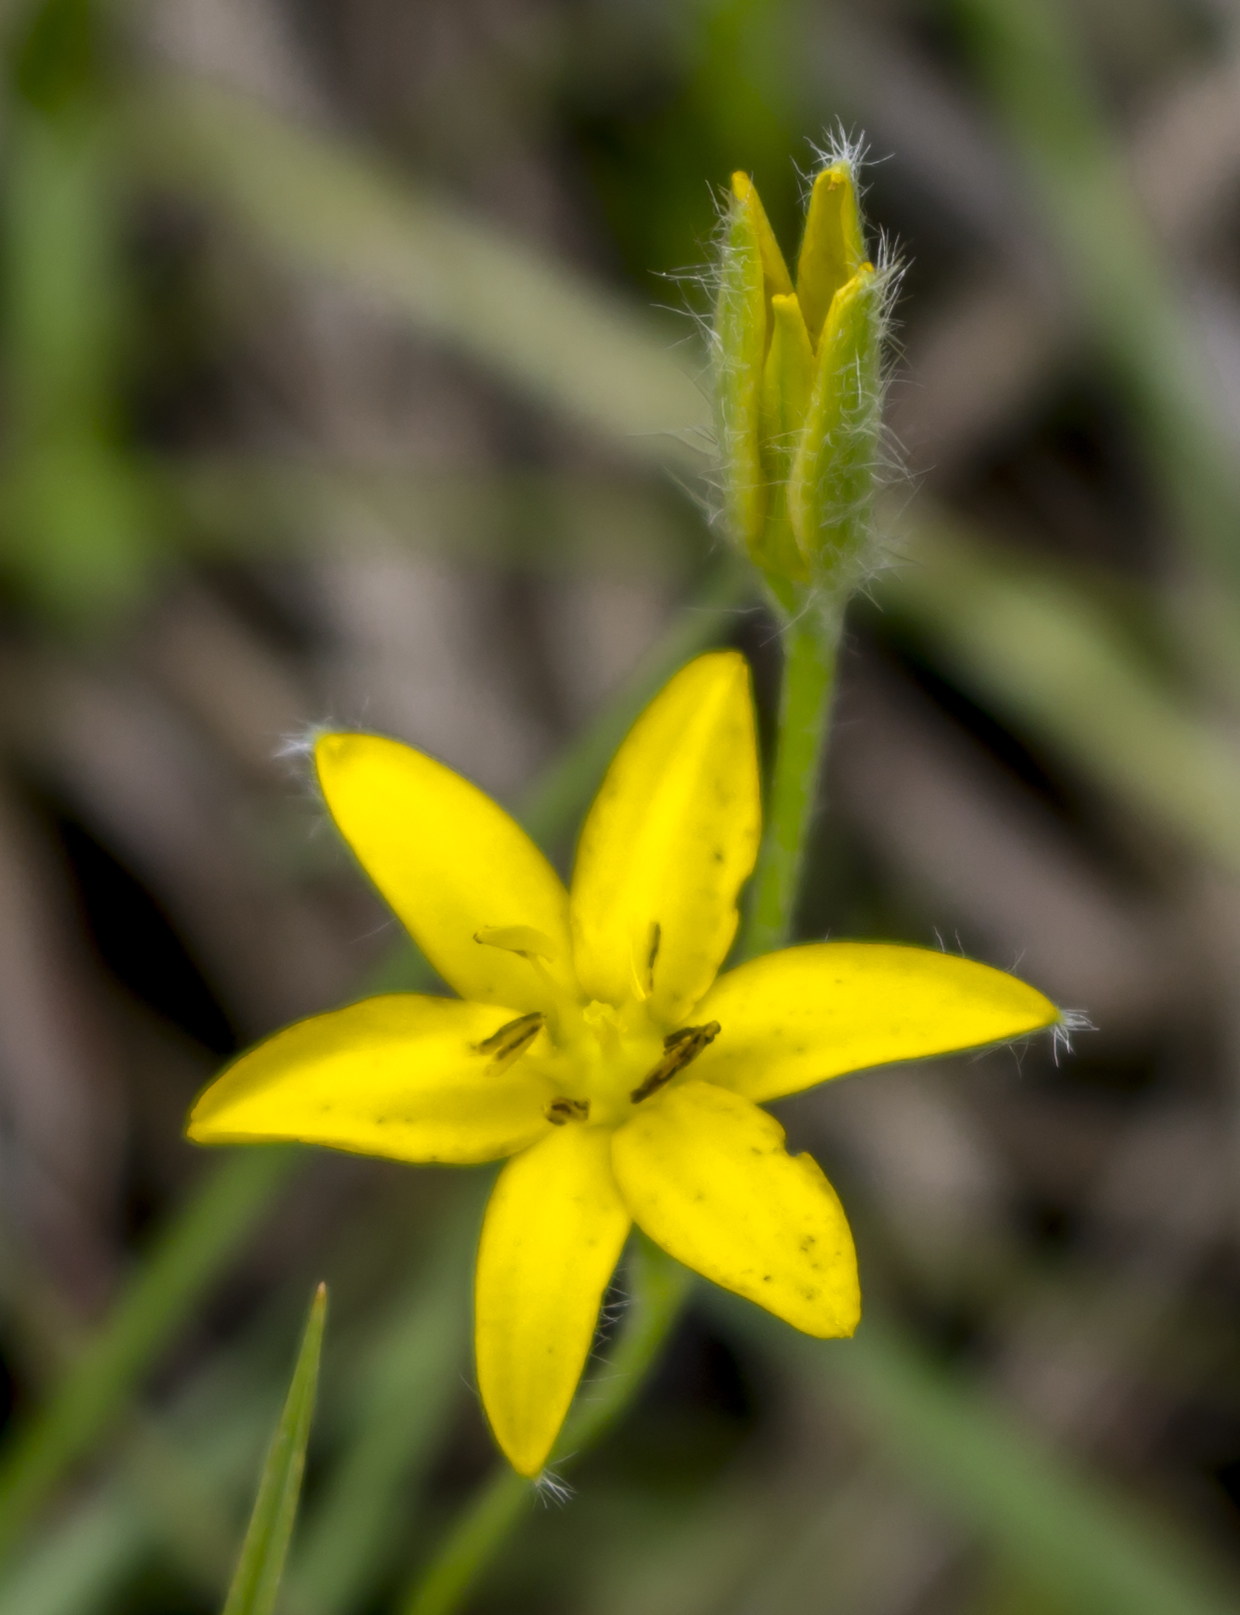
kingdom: Plantae
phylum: Tracheophyta
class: Liliopsida
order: Asparagales
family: Hypoxidaceae
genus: Hypoxis
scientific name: Hypoxis hirsuta
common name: Common goldstar
